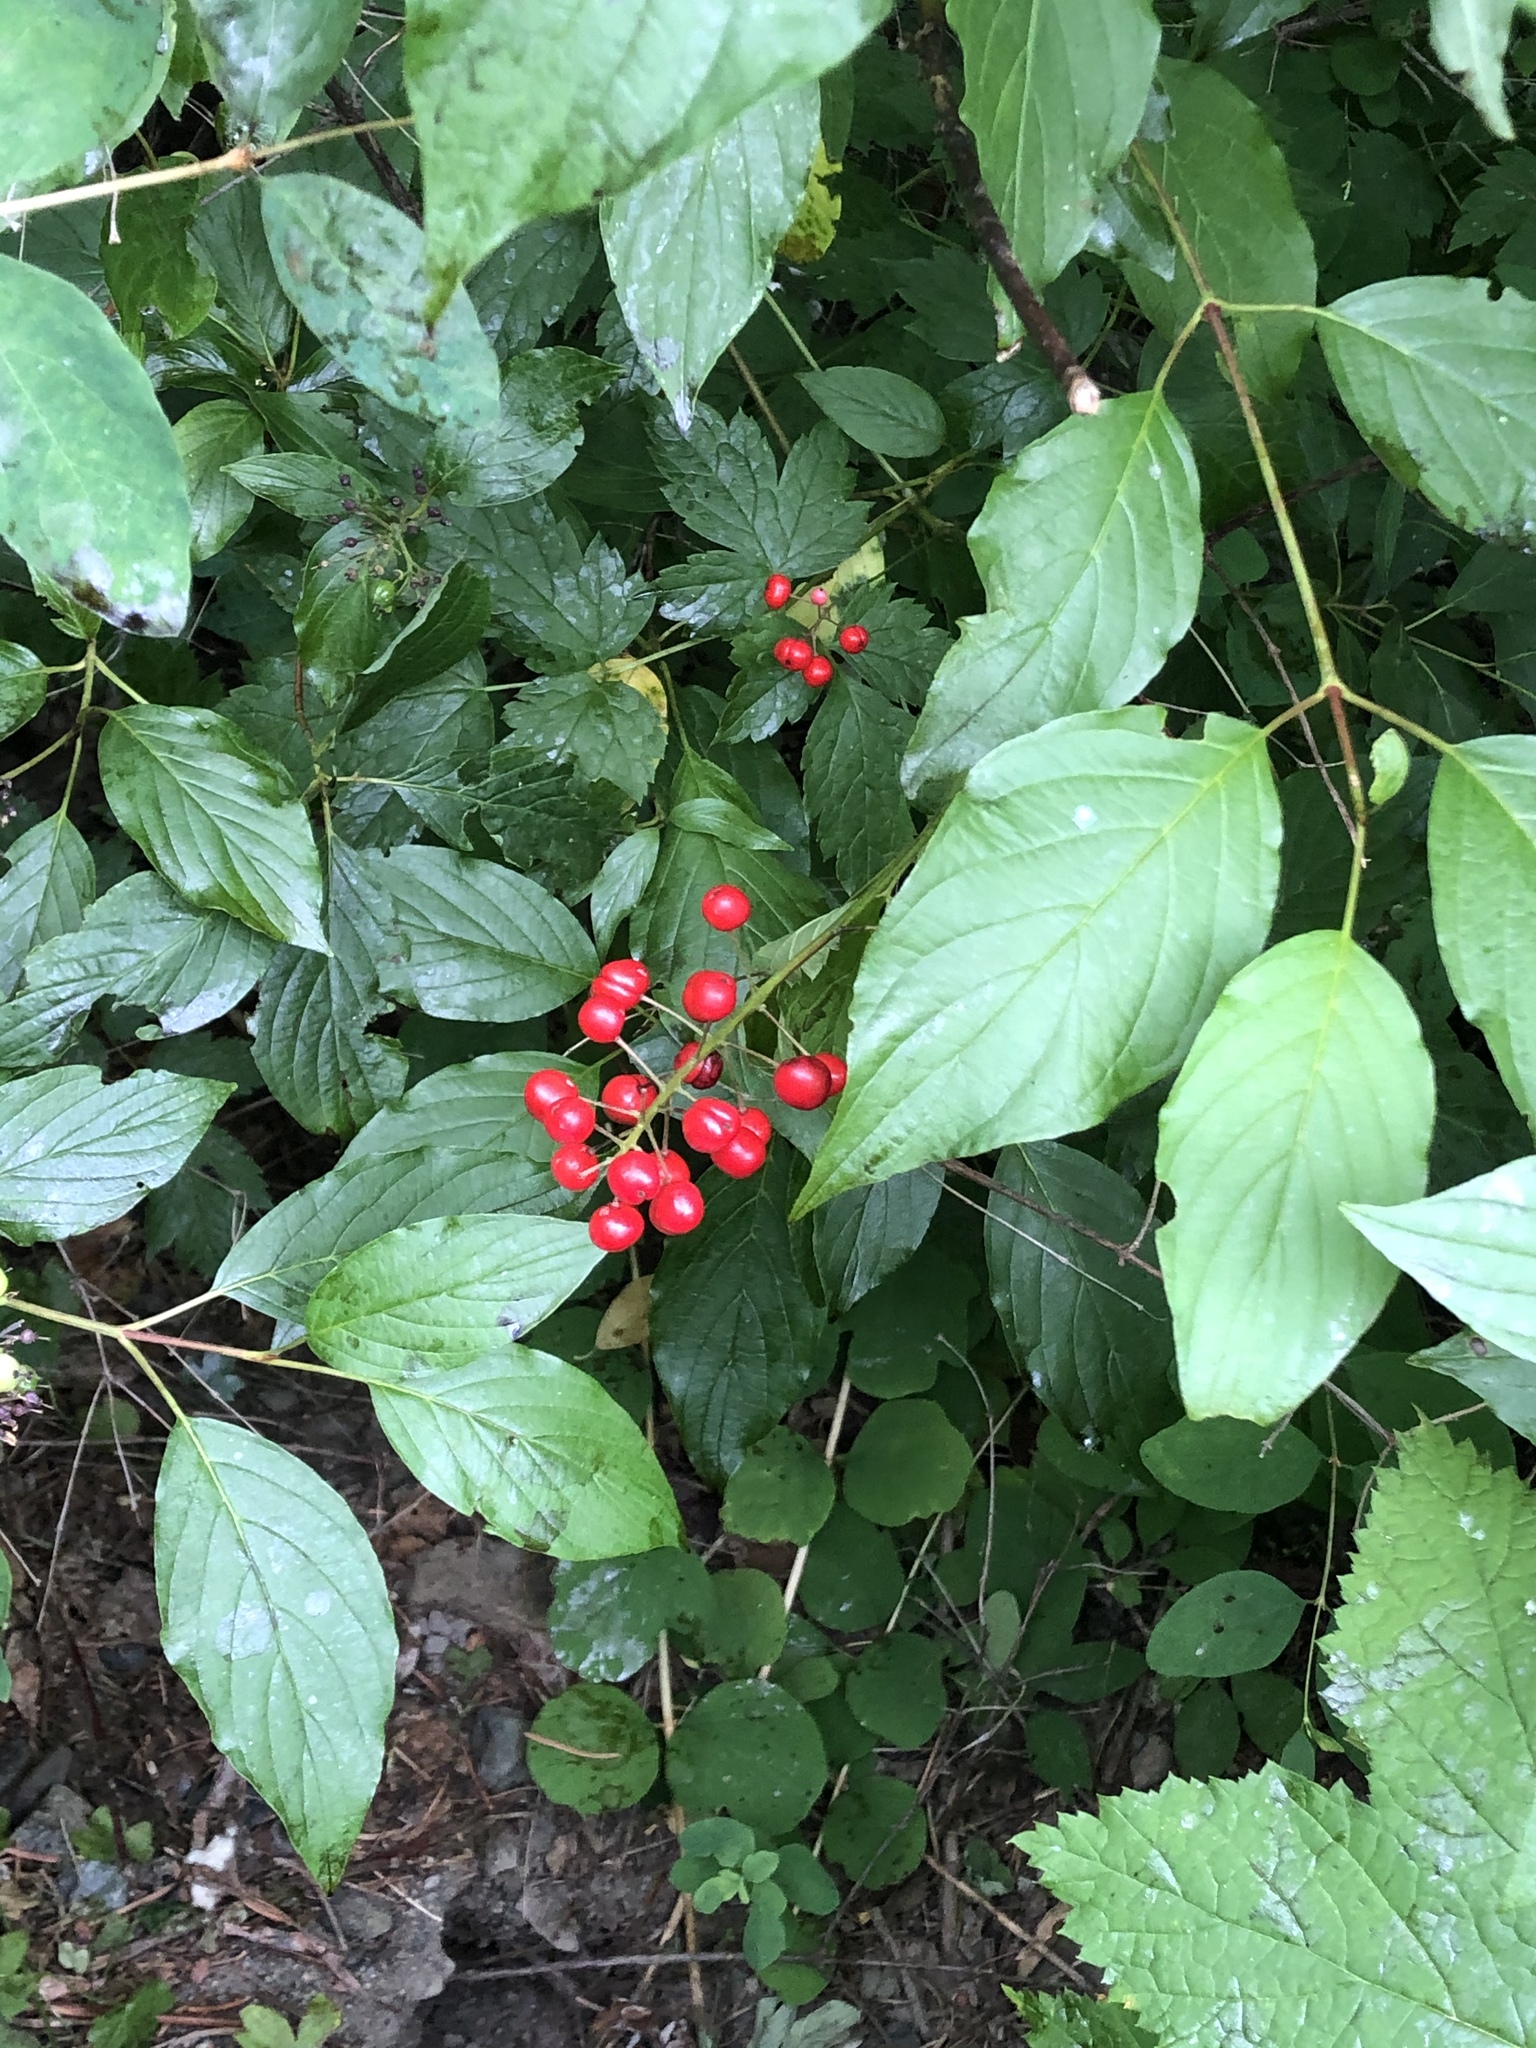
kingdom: Plantae
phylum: Tracheophyta
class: Magnoliopsida
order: Ranunculales
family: Ranunculaceae
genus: Actaea
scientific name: Actaea rubra
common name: Red baneberry
